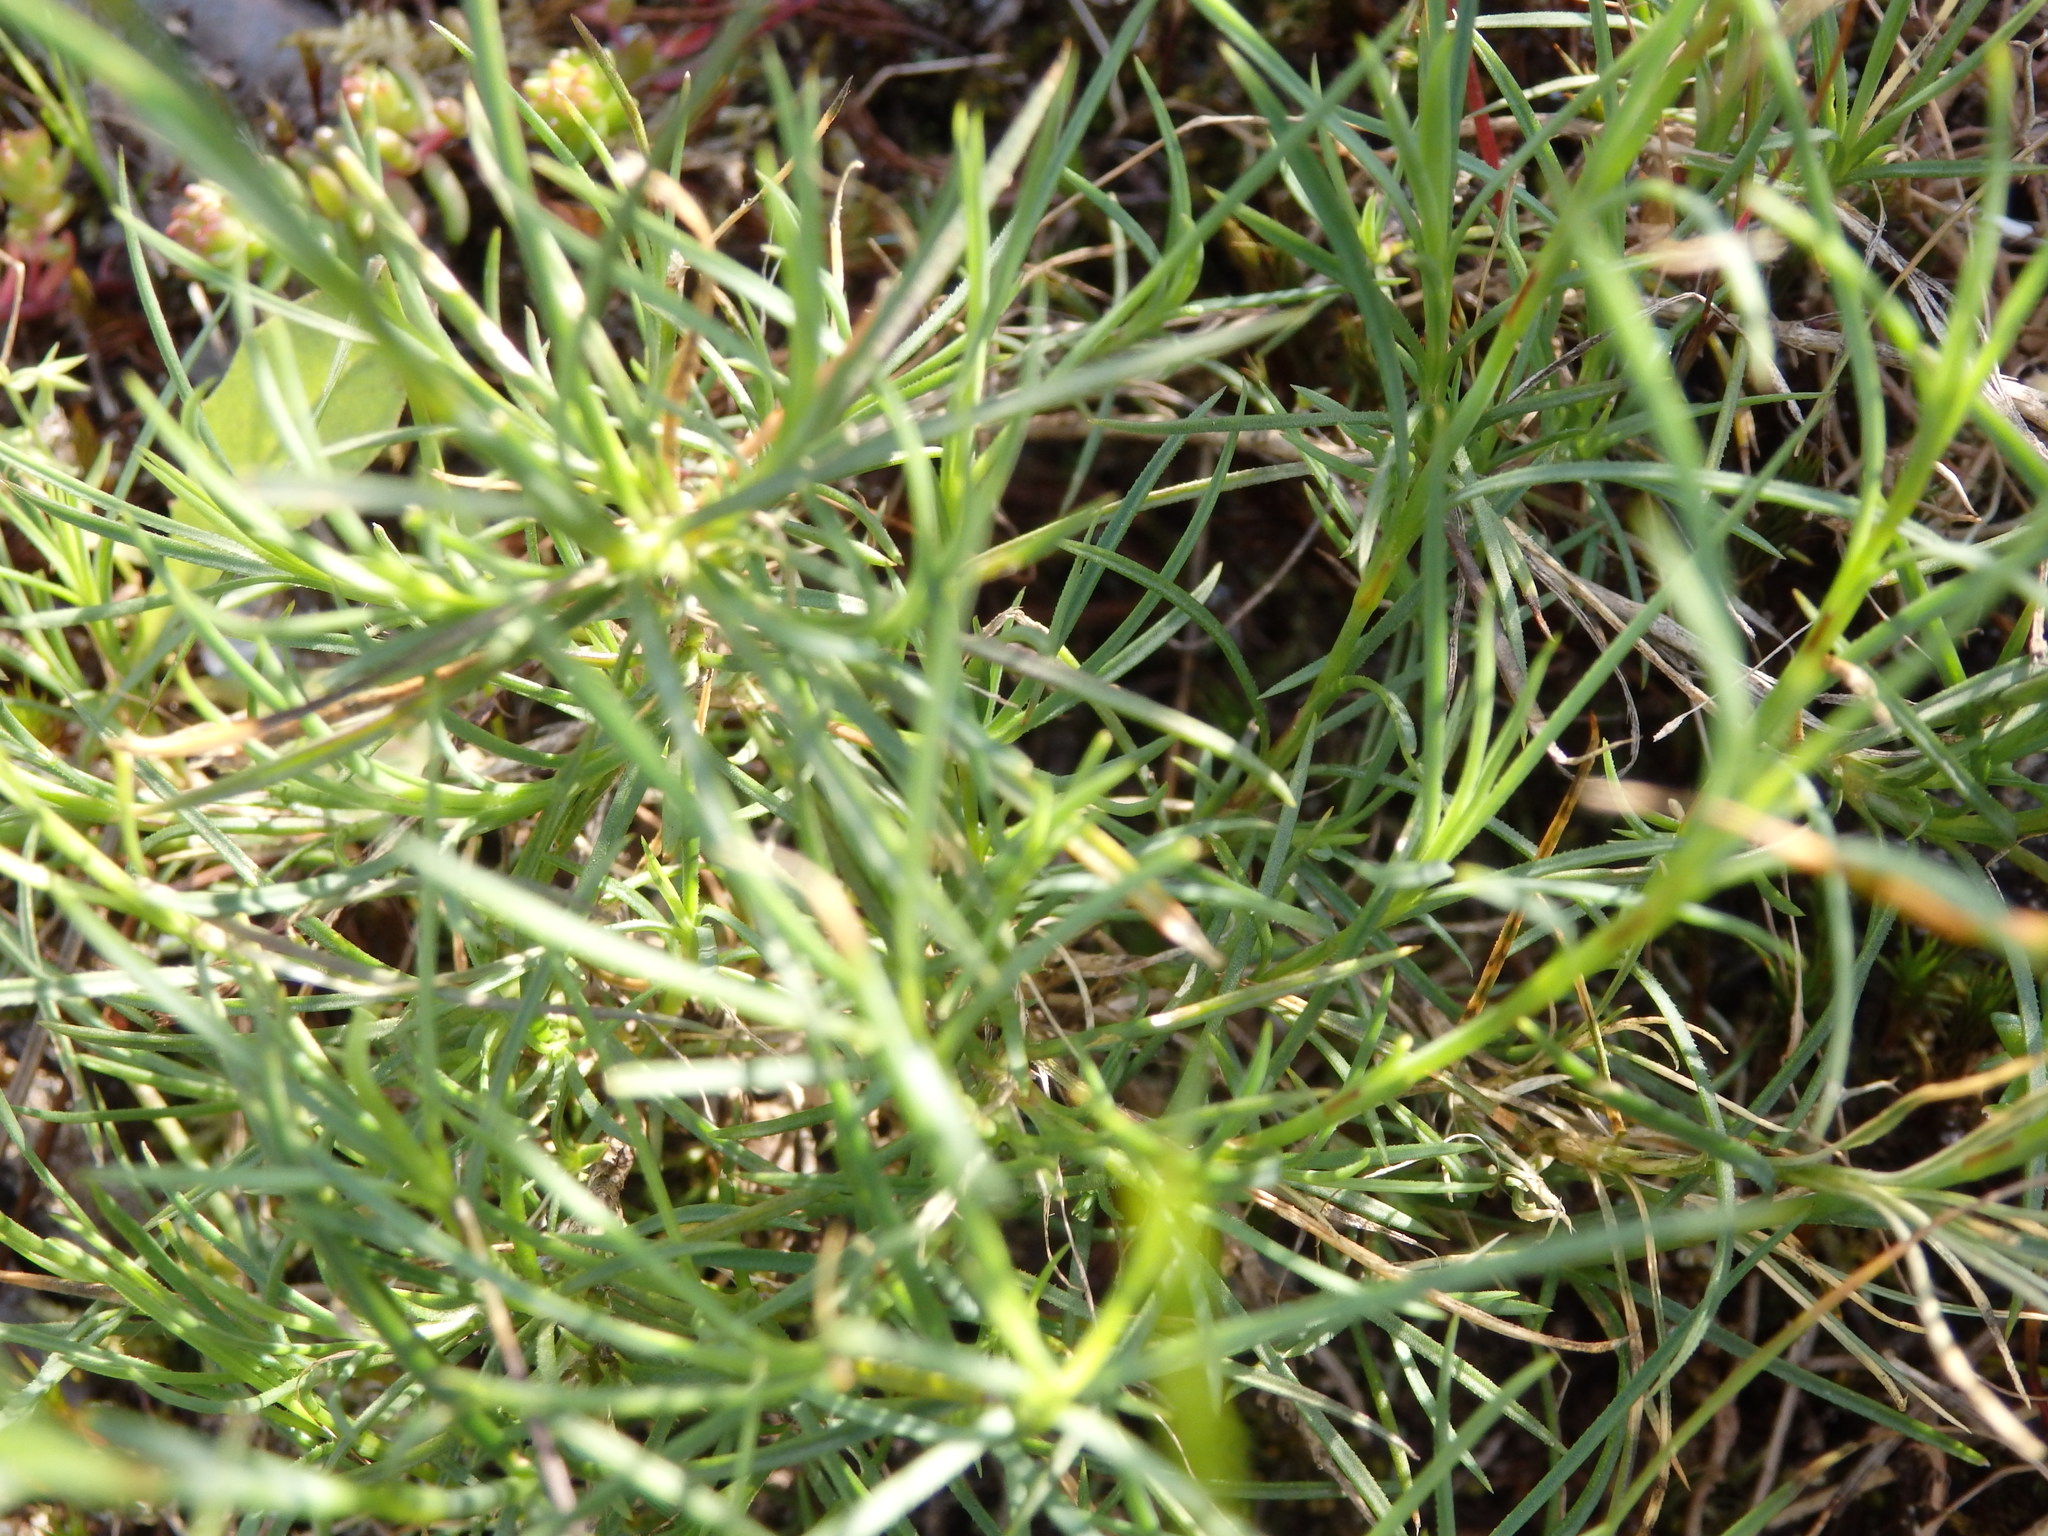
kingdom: Plantae
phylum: Tracheophyta
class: Magnoliopsida
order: Caryophyllales
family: Caryophyllaceae
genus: Dianthus
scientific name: Dianthus laricifolius
